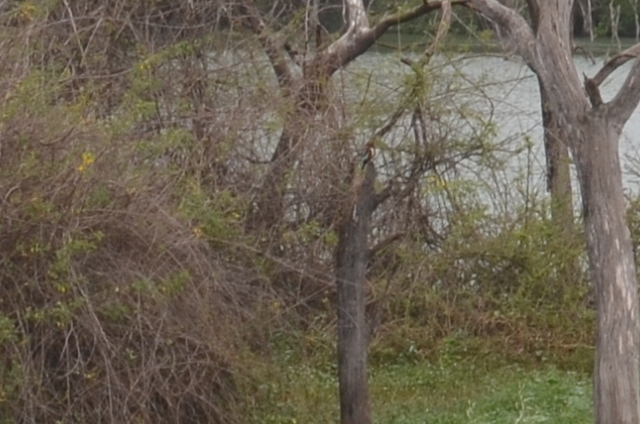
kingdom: Animalia
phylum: Chordata
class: Aves
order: Coraciiformes
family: Alcedinidae
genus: Halcyon
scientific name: Halcyon smyrnensis
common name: White-throated kingfisher
